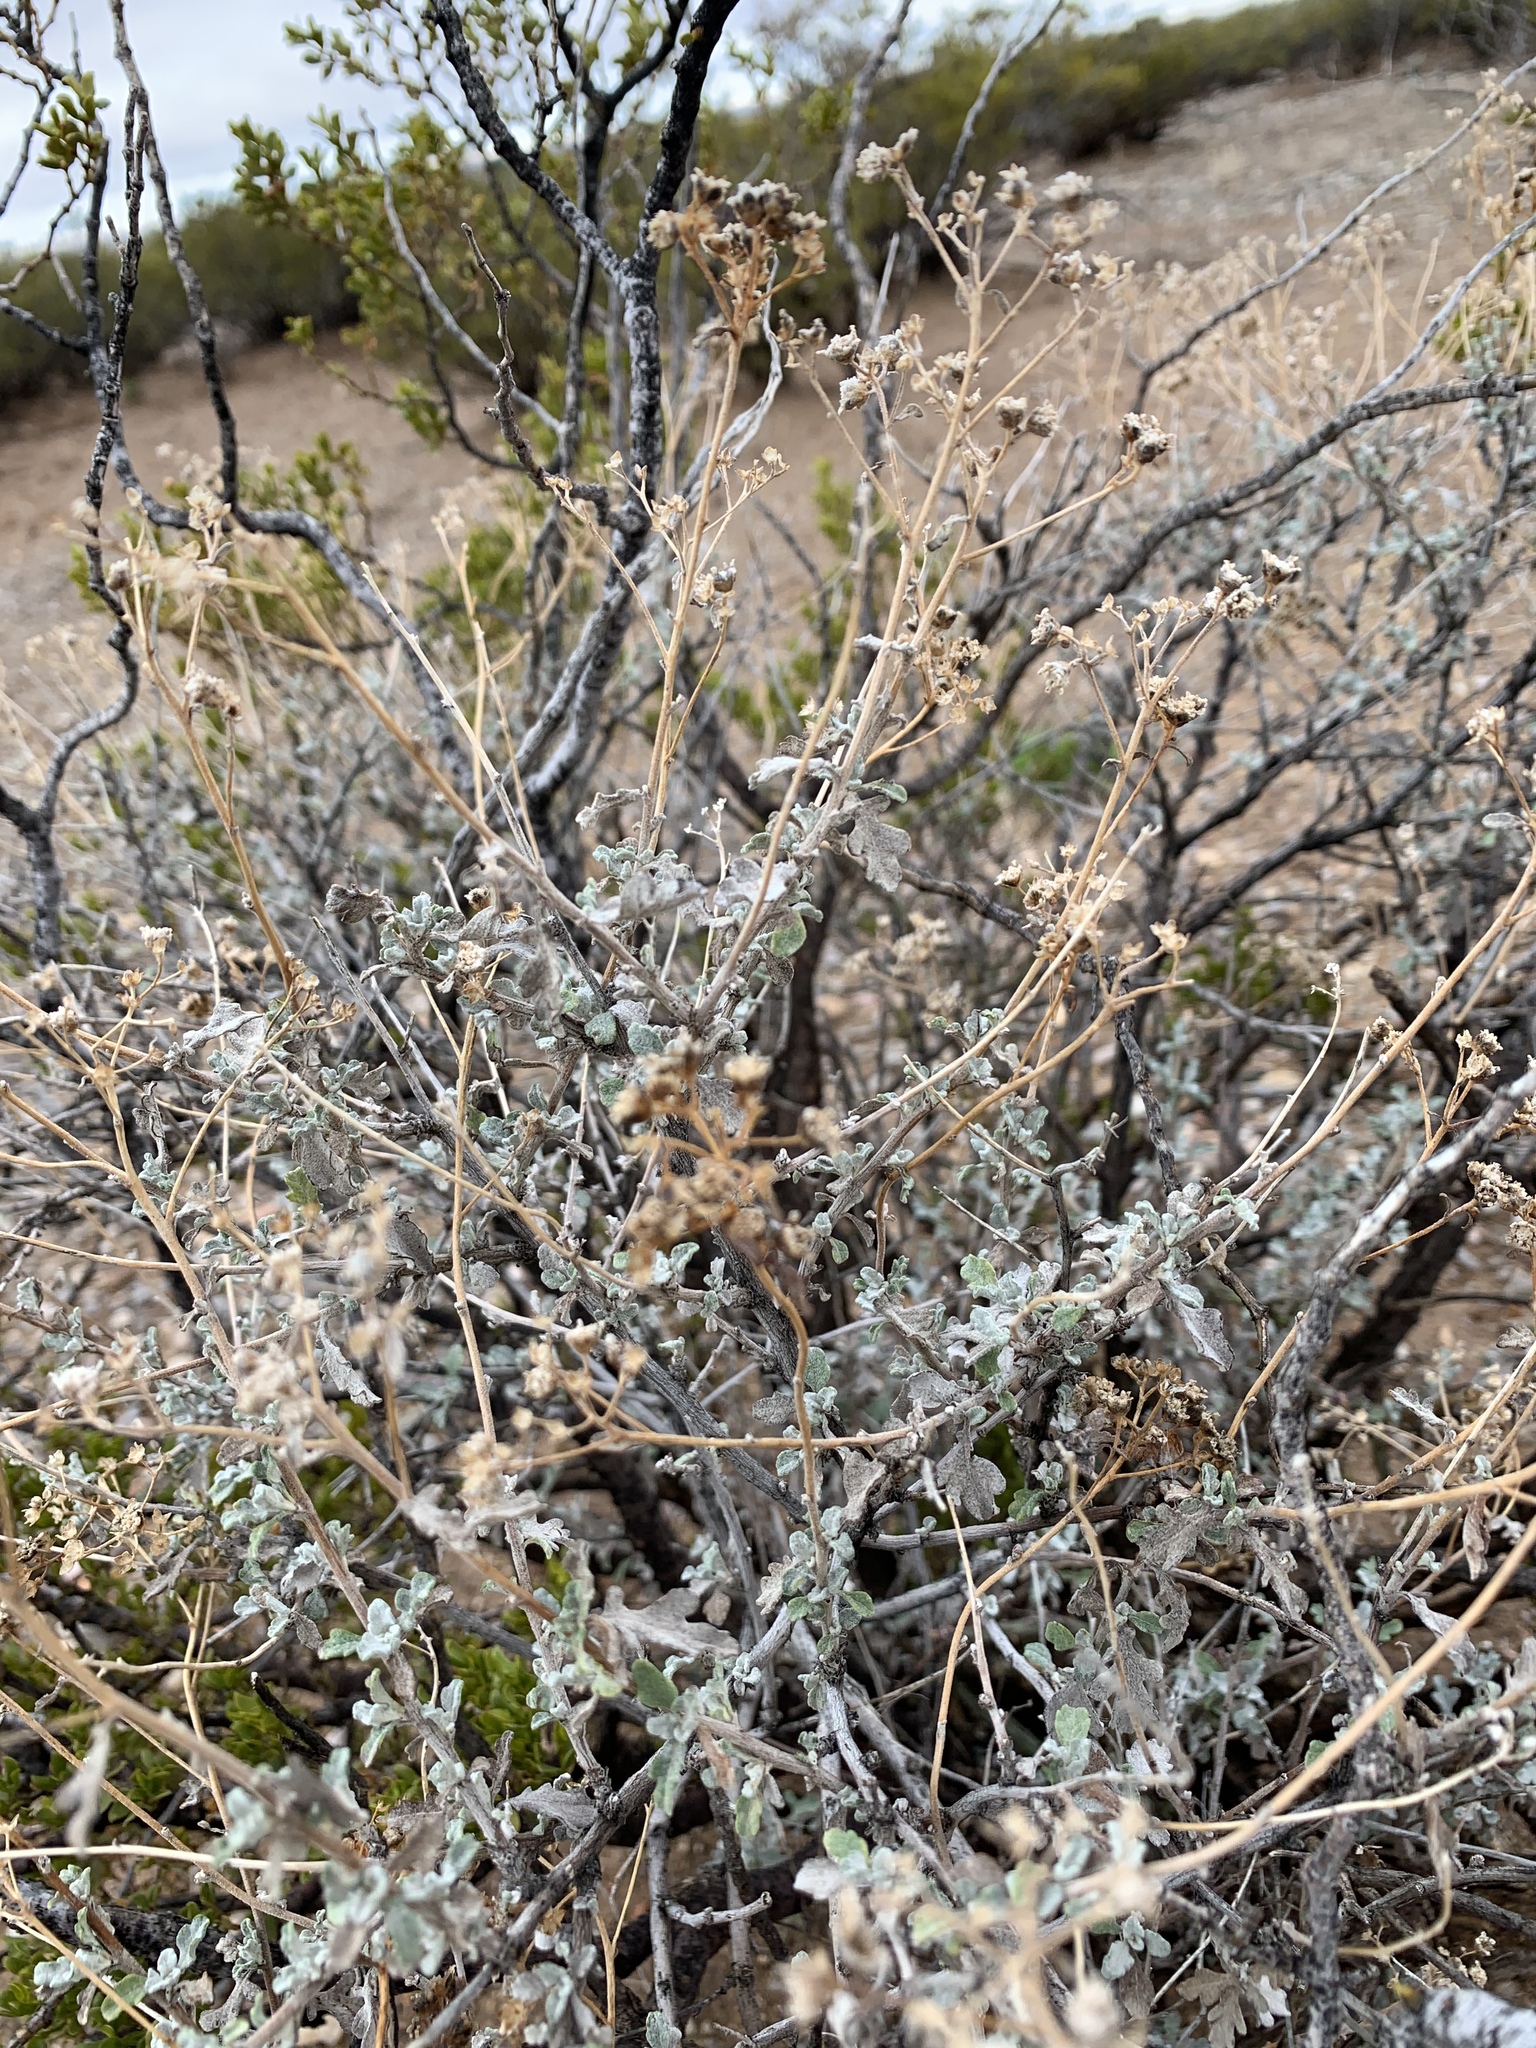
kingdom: Plantae
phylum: Tracheophyta
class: Magnoliopsida
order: Asterales
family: Asteraceae
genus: Parthenium
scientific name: Parthenium incanum
